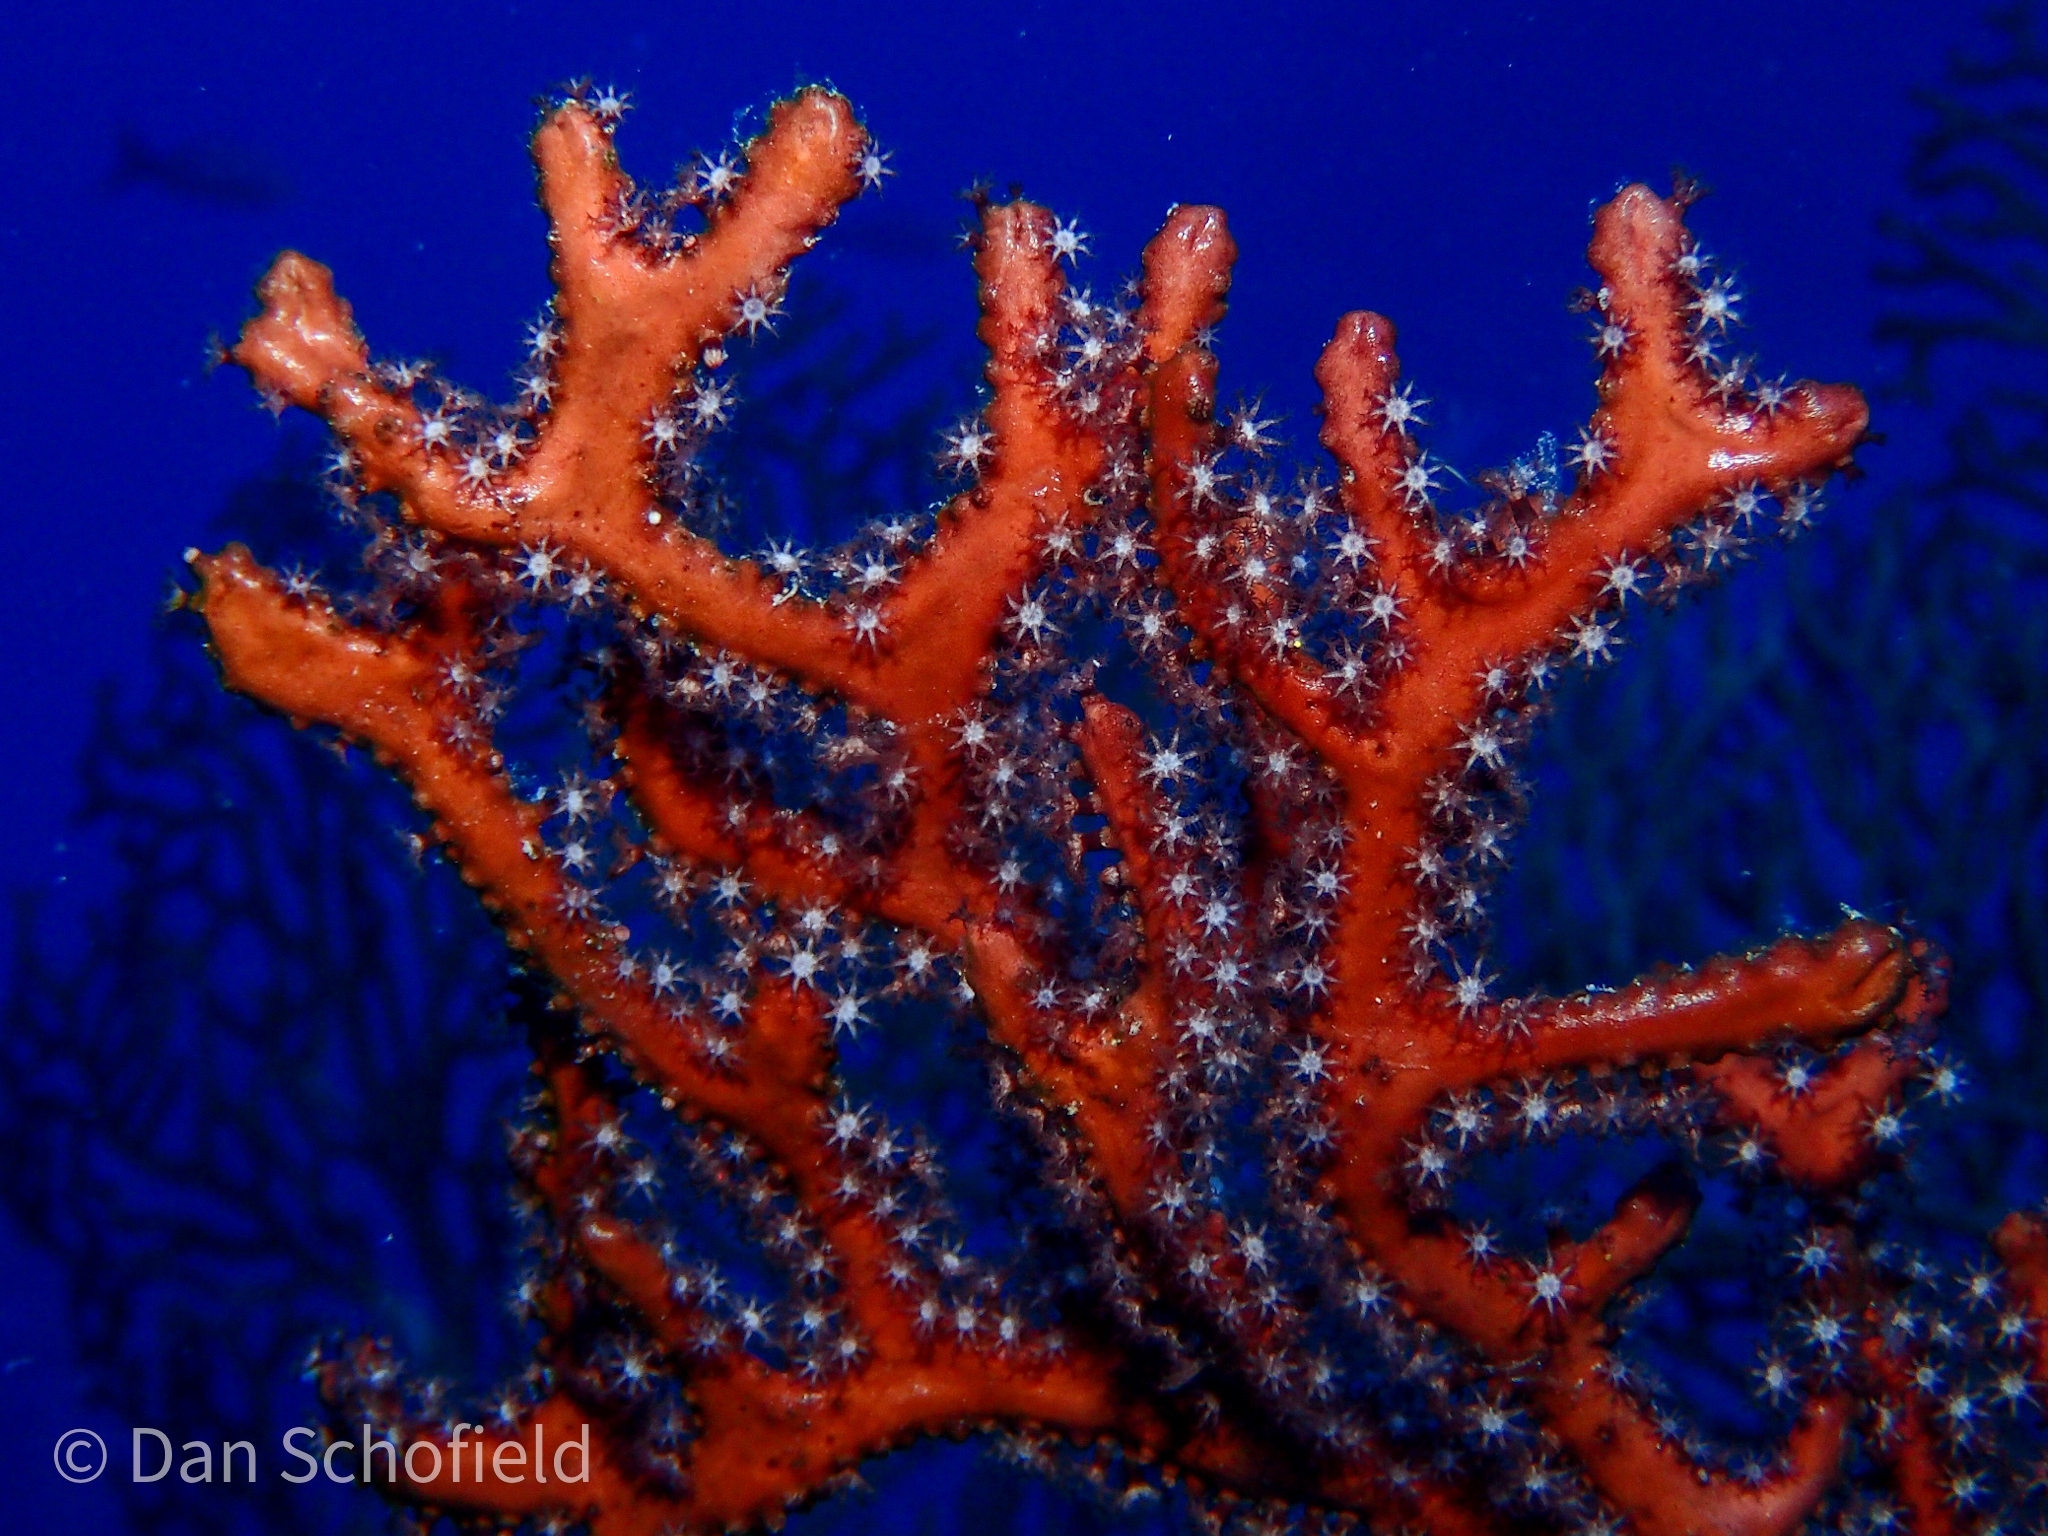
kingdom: Animalia
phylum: Cnidaria
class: Anthozoa
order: Malacalcyonacea
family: Melithaeidae
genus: Iciligorgia
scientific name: Iciligorgia schrammi
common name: Black sea fan
